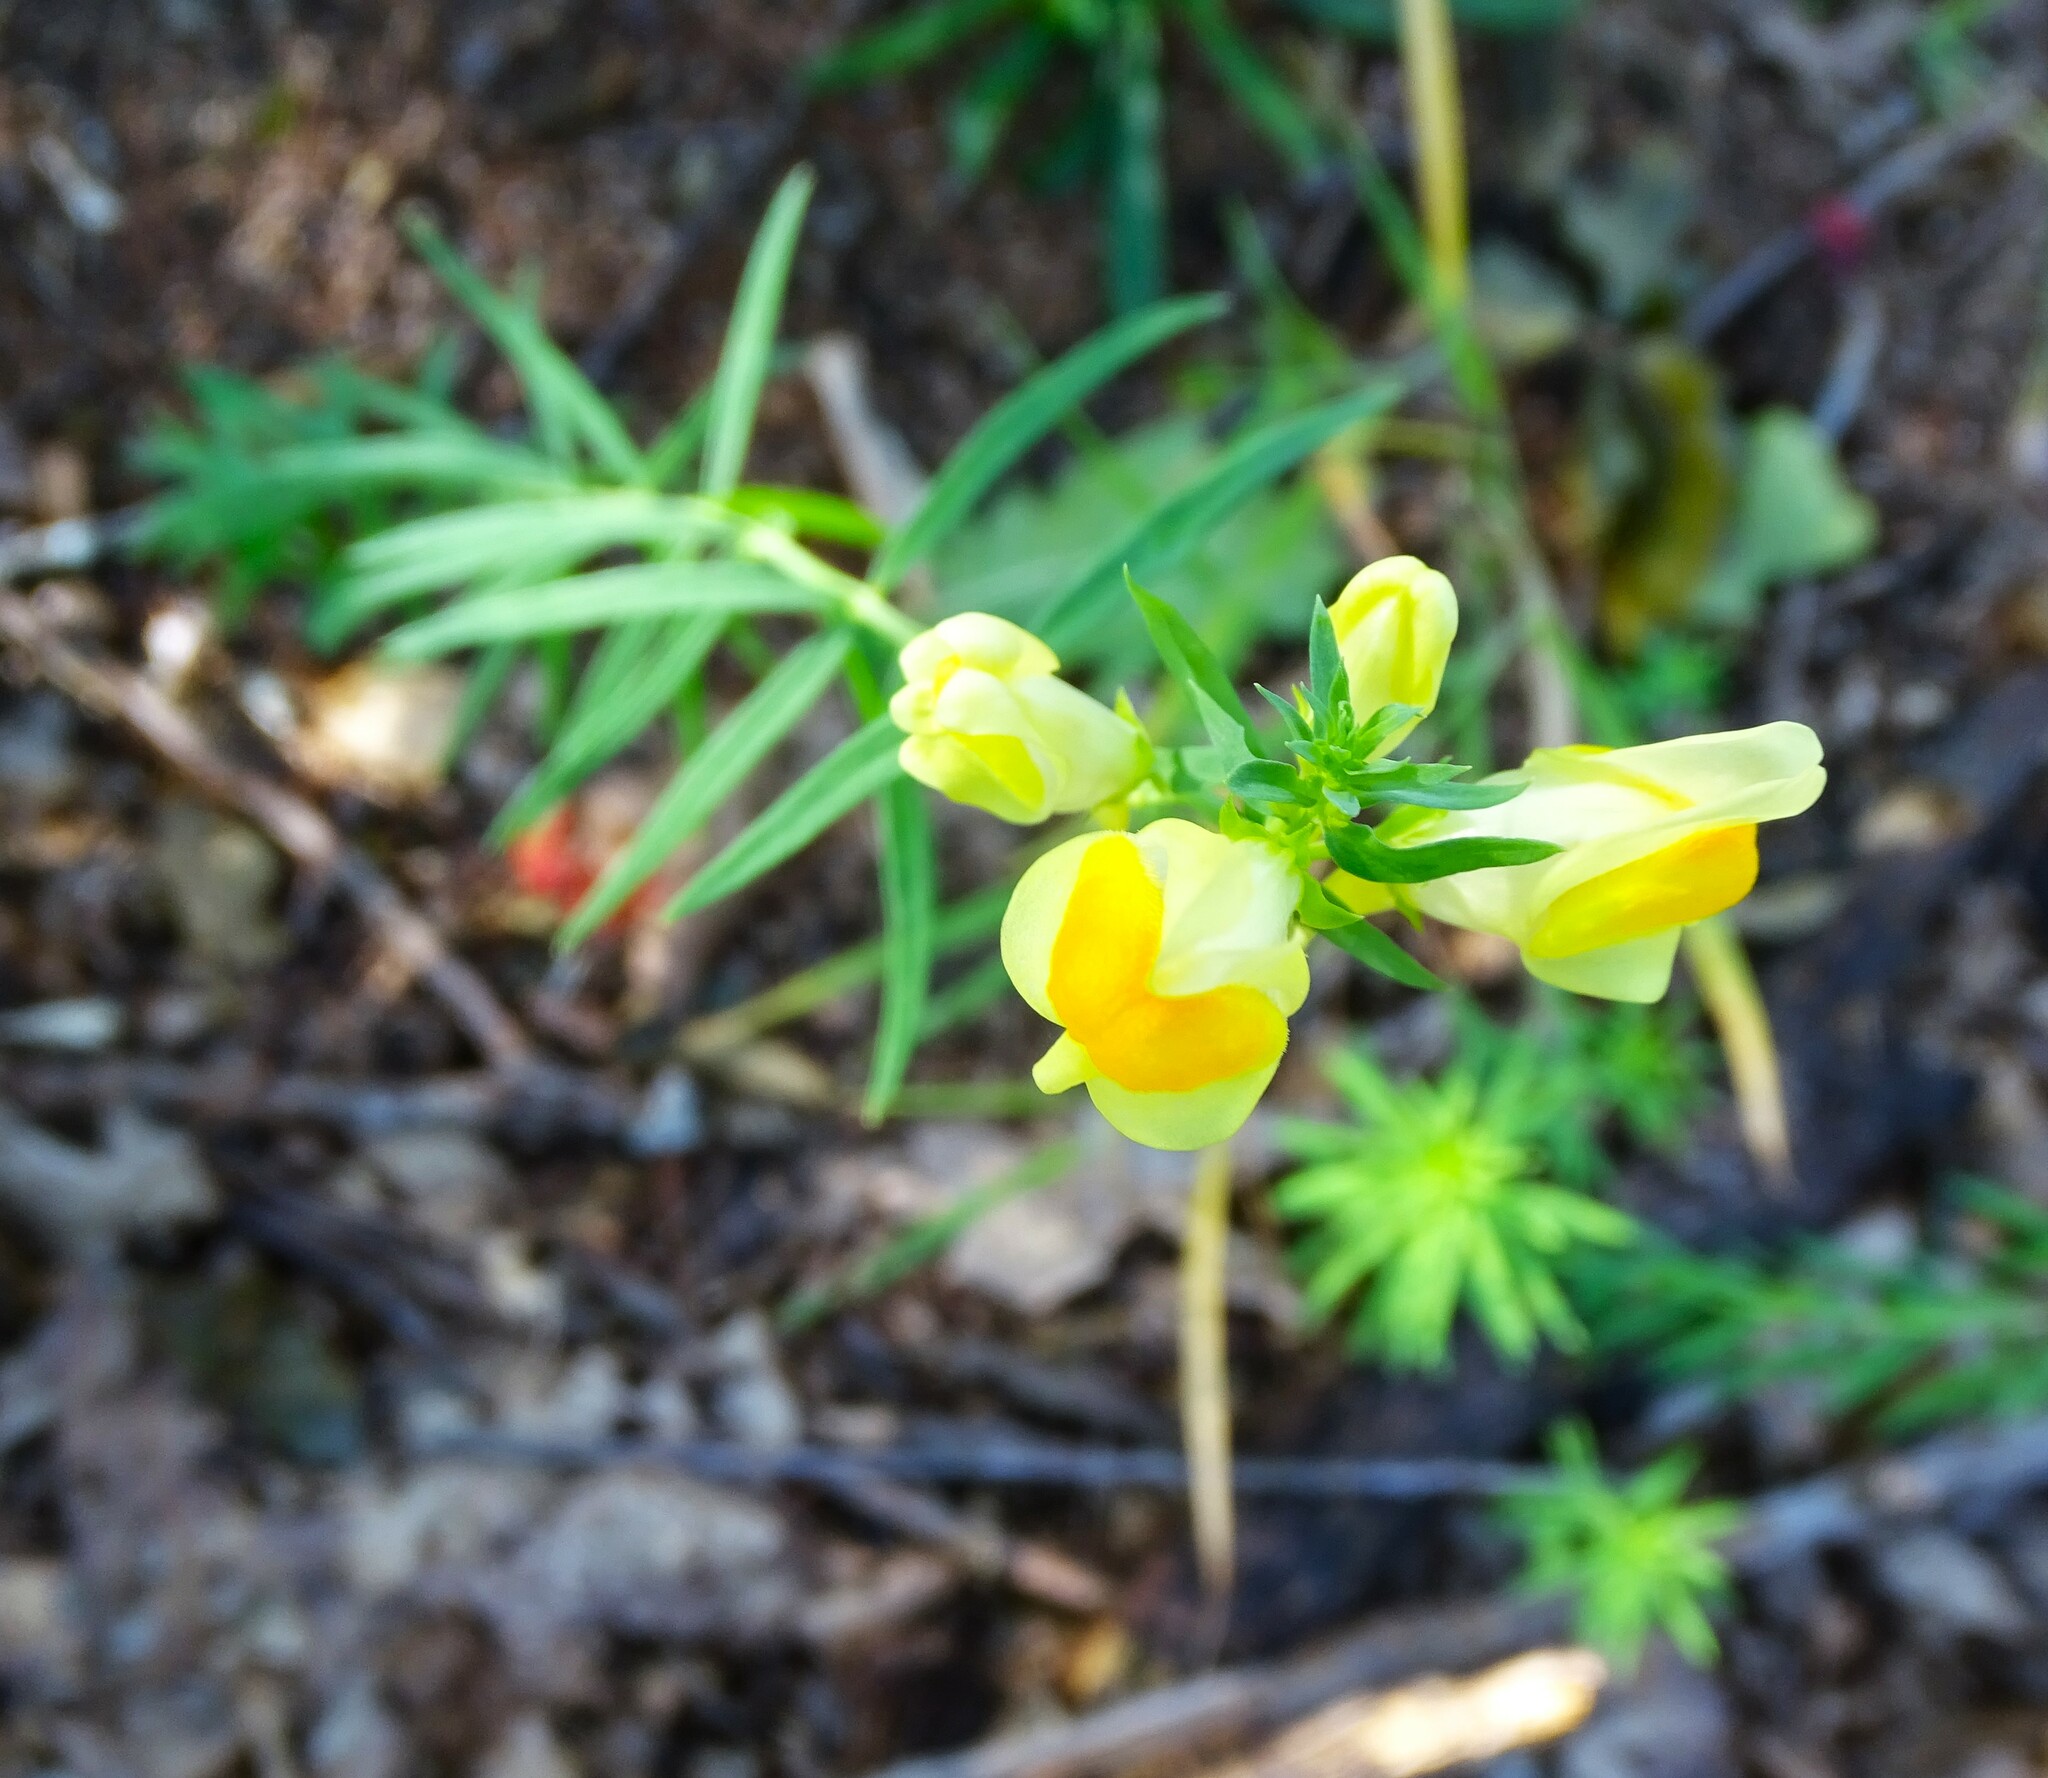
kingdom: Plantae
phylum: Tracheophyta
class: Magnoliopsida
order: Lamiales
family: Plantaginaceae
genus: Linaria
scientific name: Linaria vulgaris
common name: Butter and eggs
